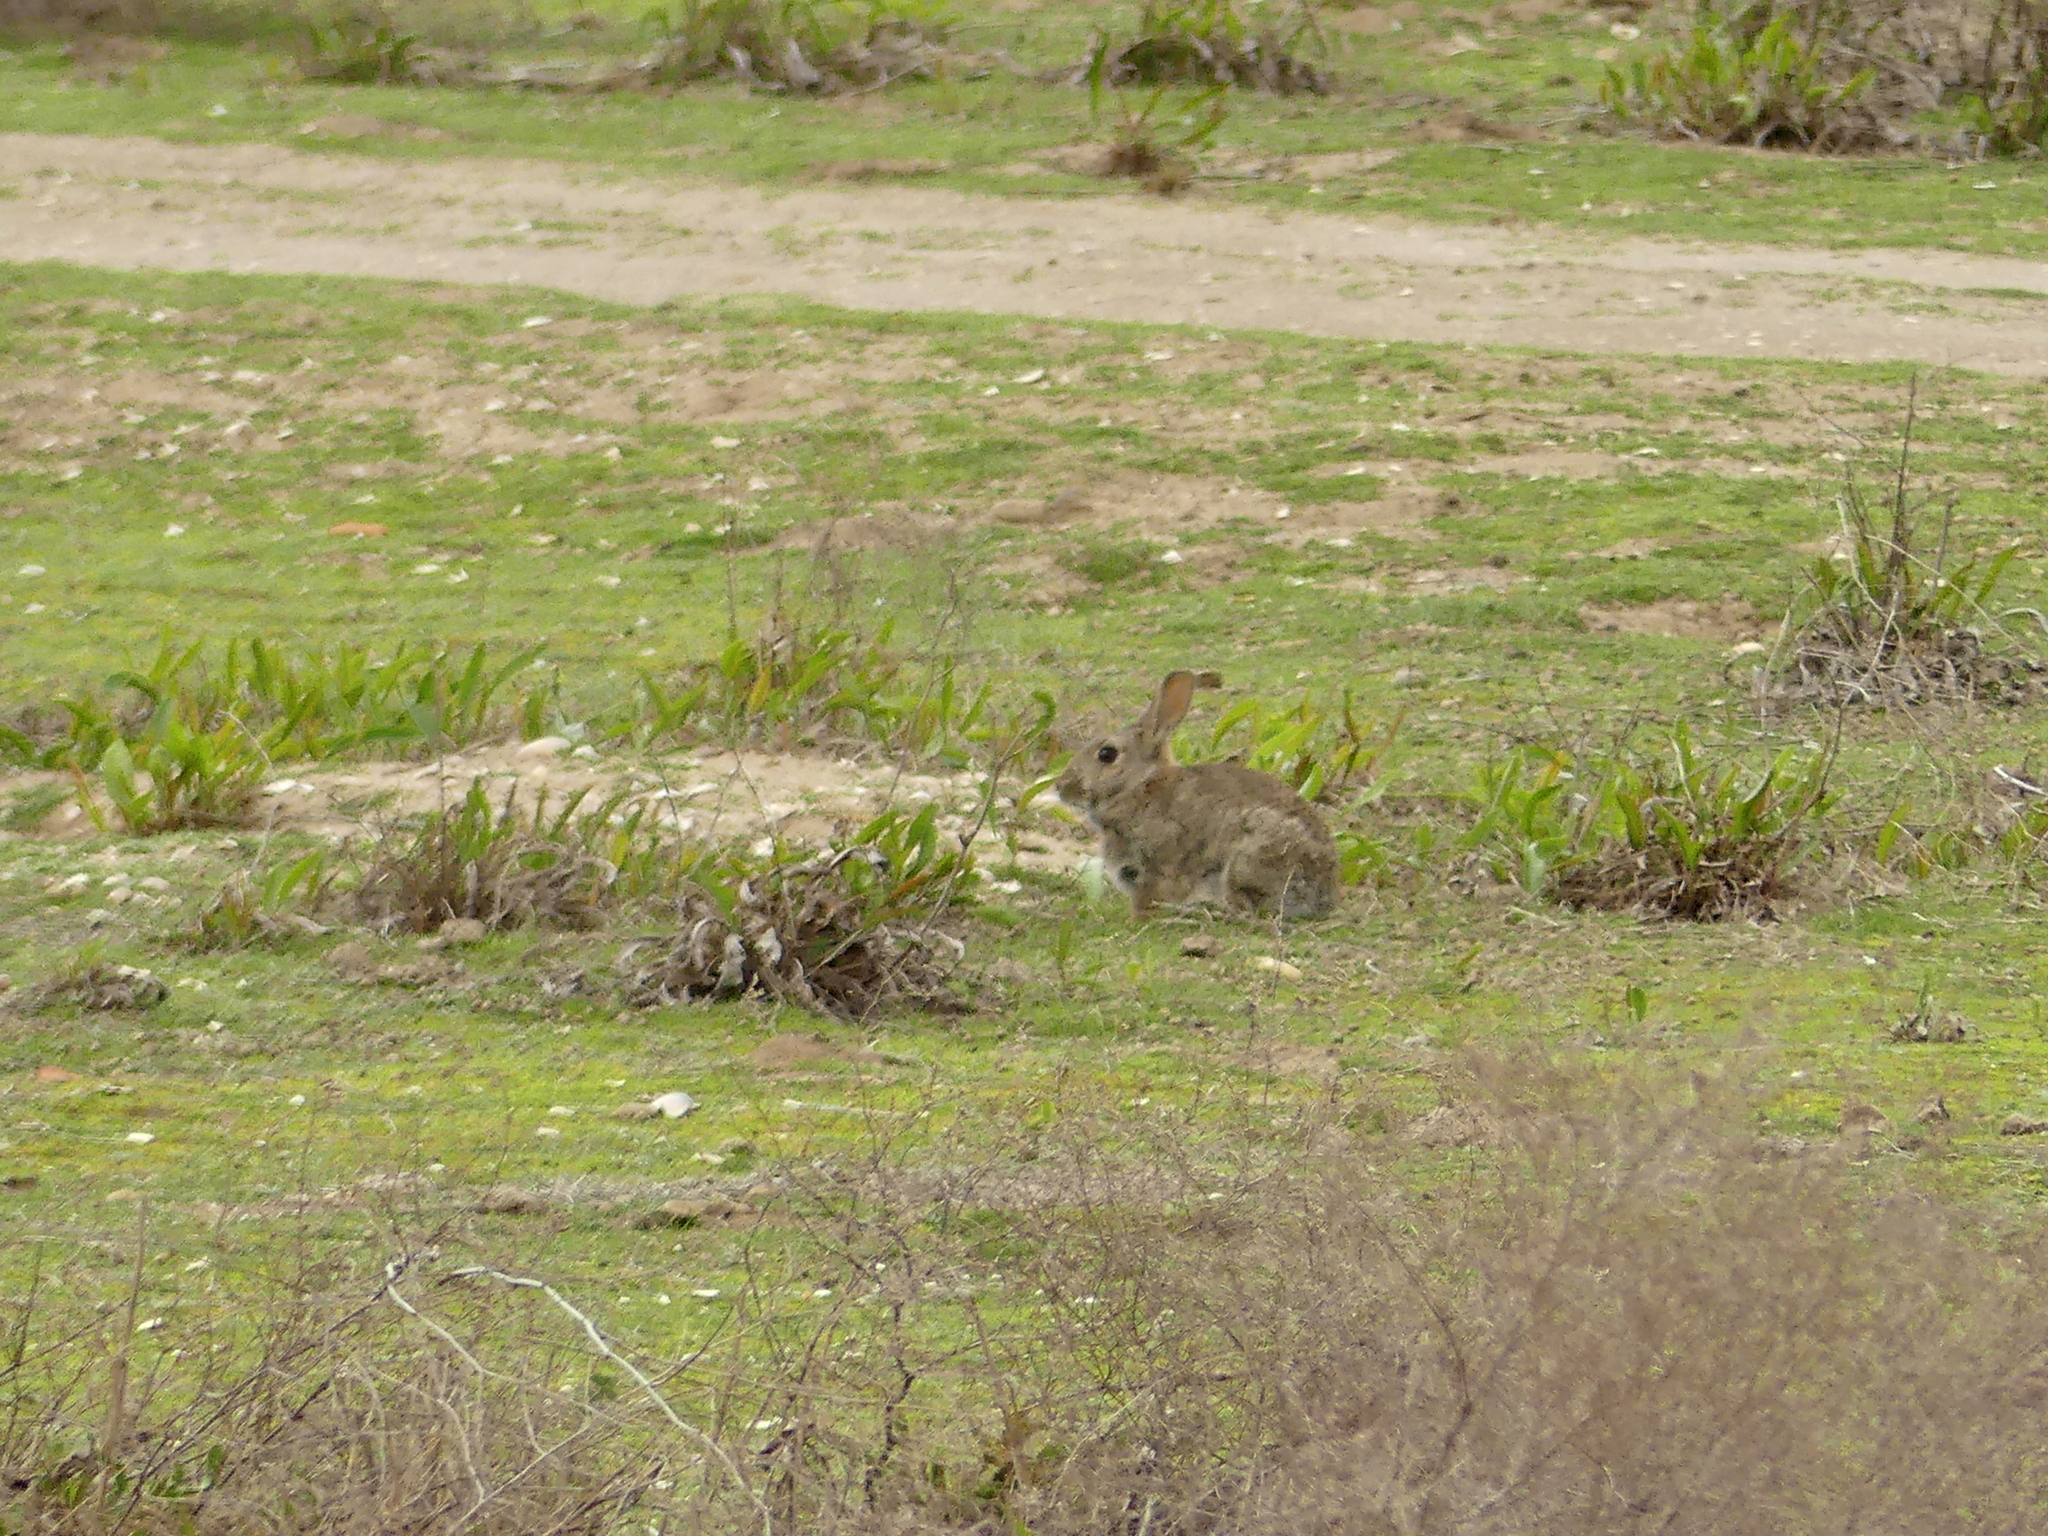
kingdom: Animalia
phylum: Chordata
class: Mammalia
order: Lagomorpha
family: Leporidae
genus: Oryctolagus
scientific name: Oryctolagus cuniculus
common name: European rabbit
